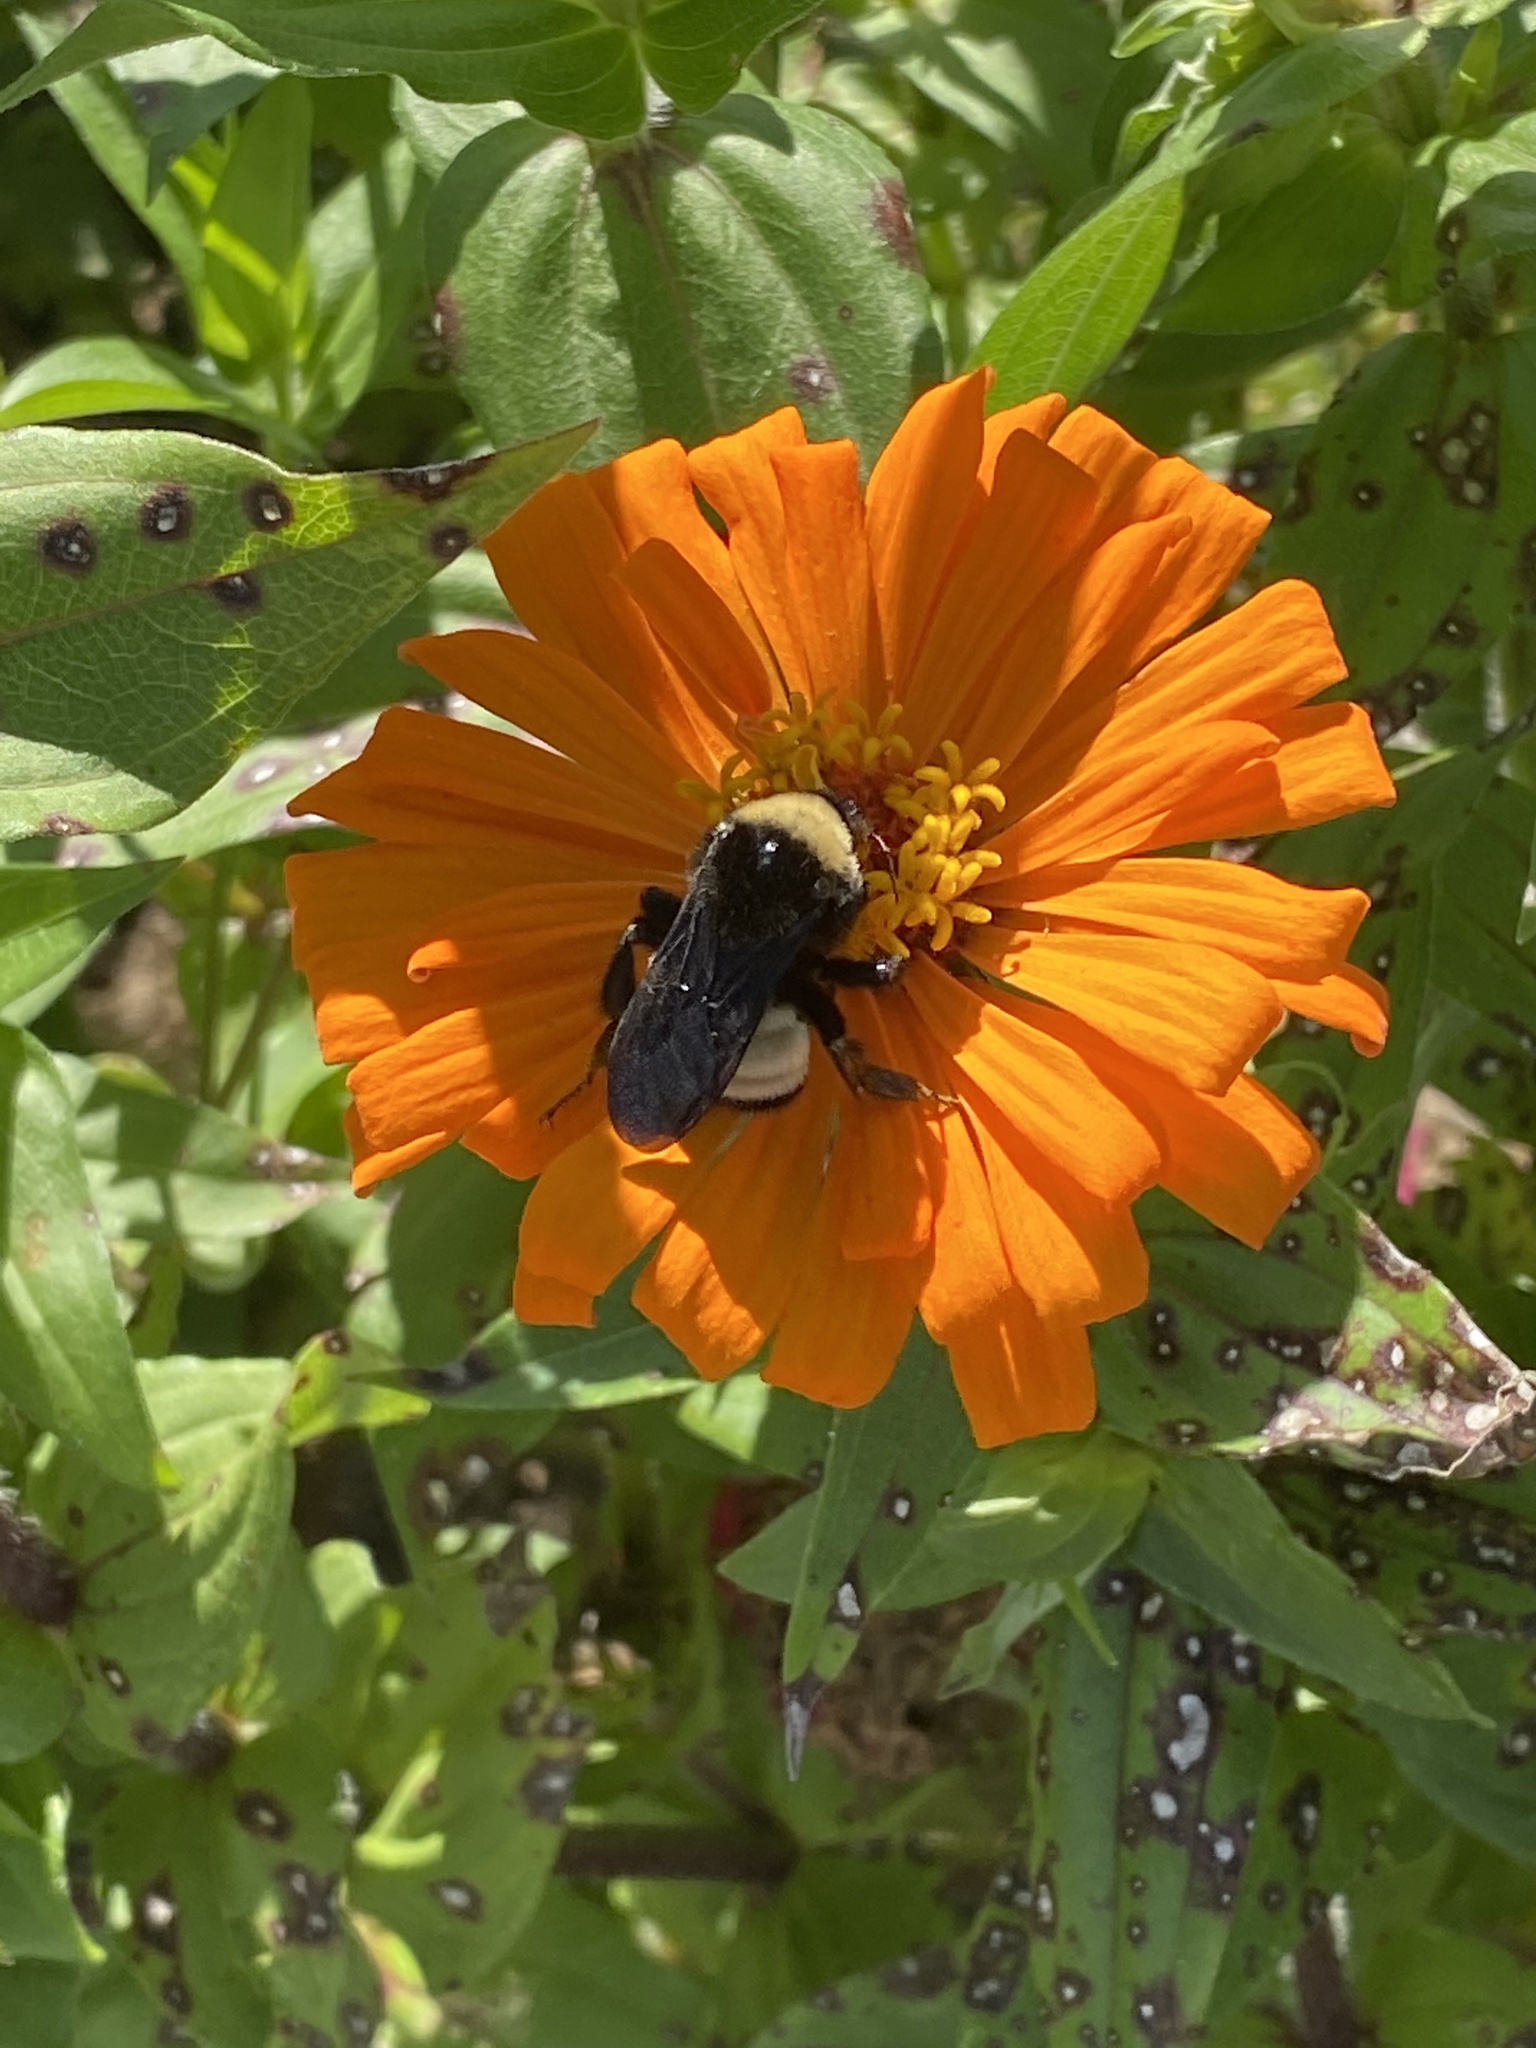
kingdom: Animalia
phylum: Arthropoda
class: Insecta
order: Hymenoptera
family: Apidae
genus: Bombus
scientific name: Bombus pensylvanicus
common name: Bumble bee
